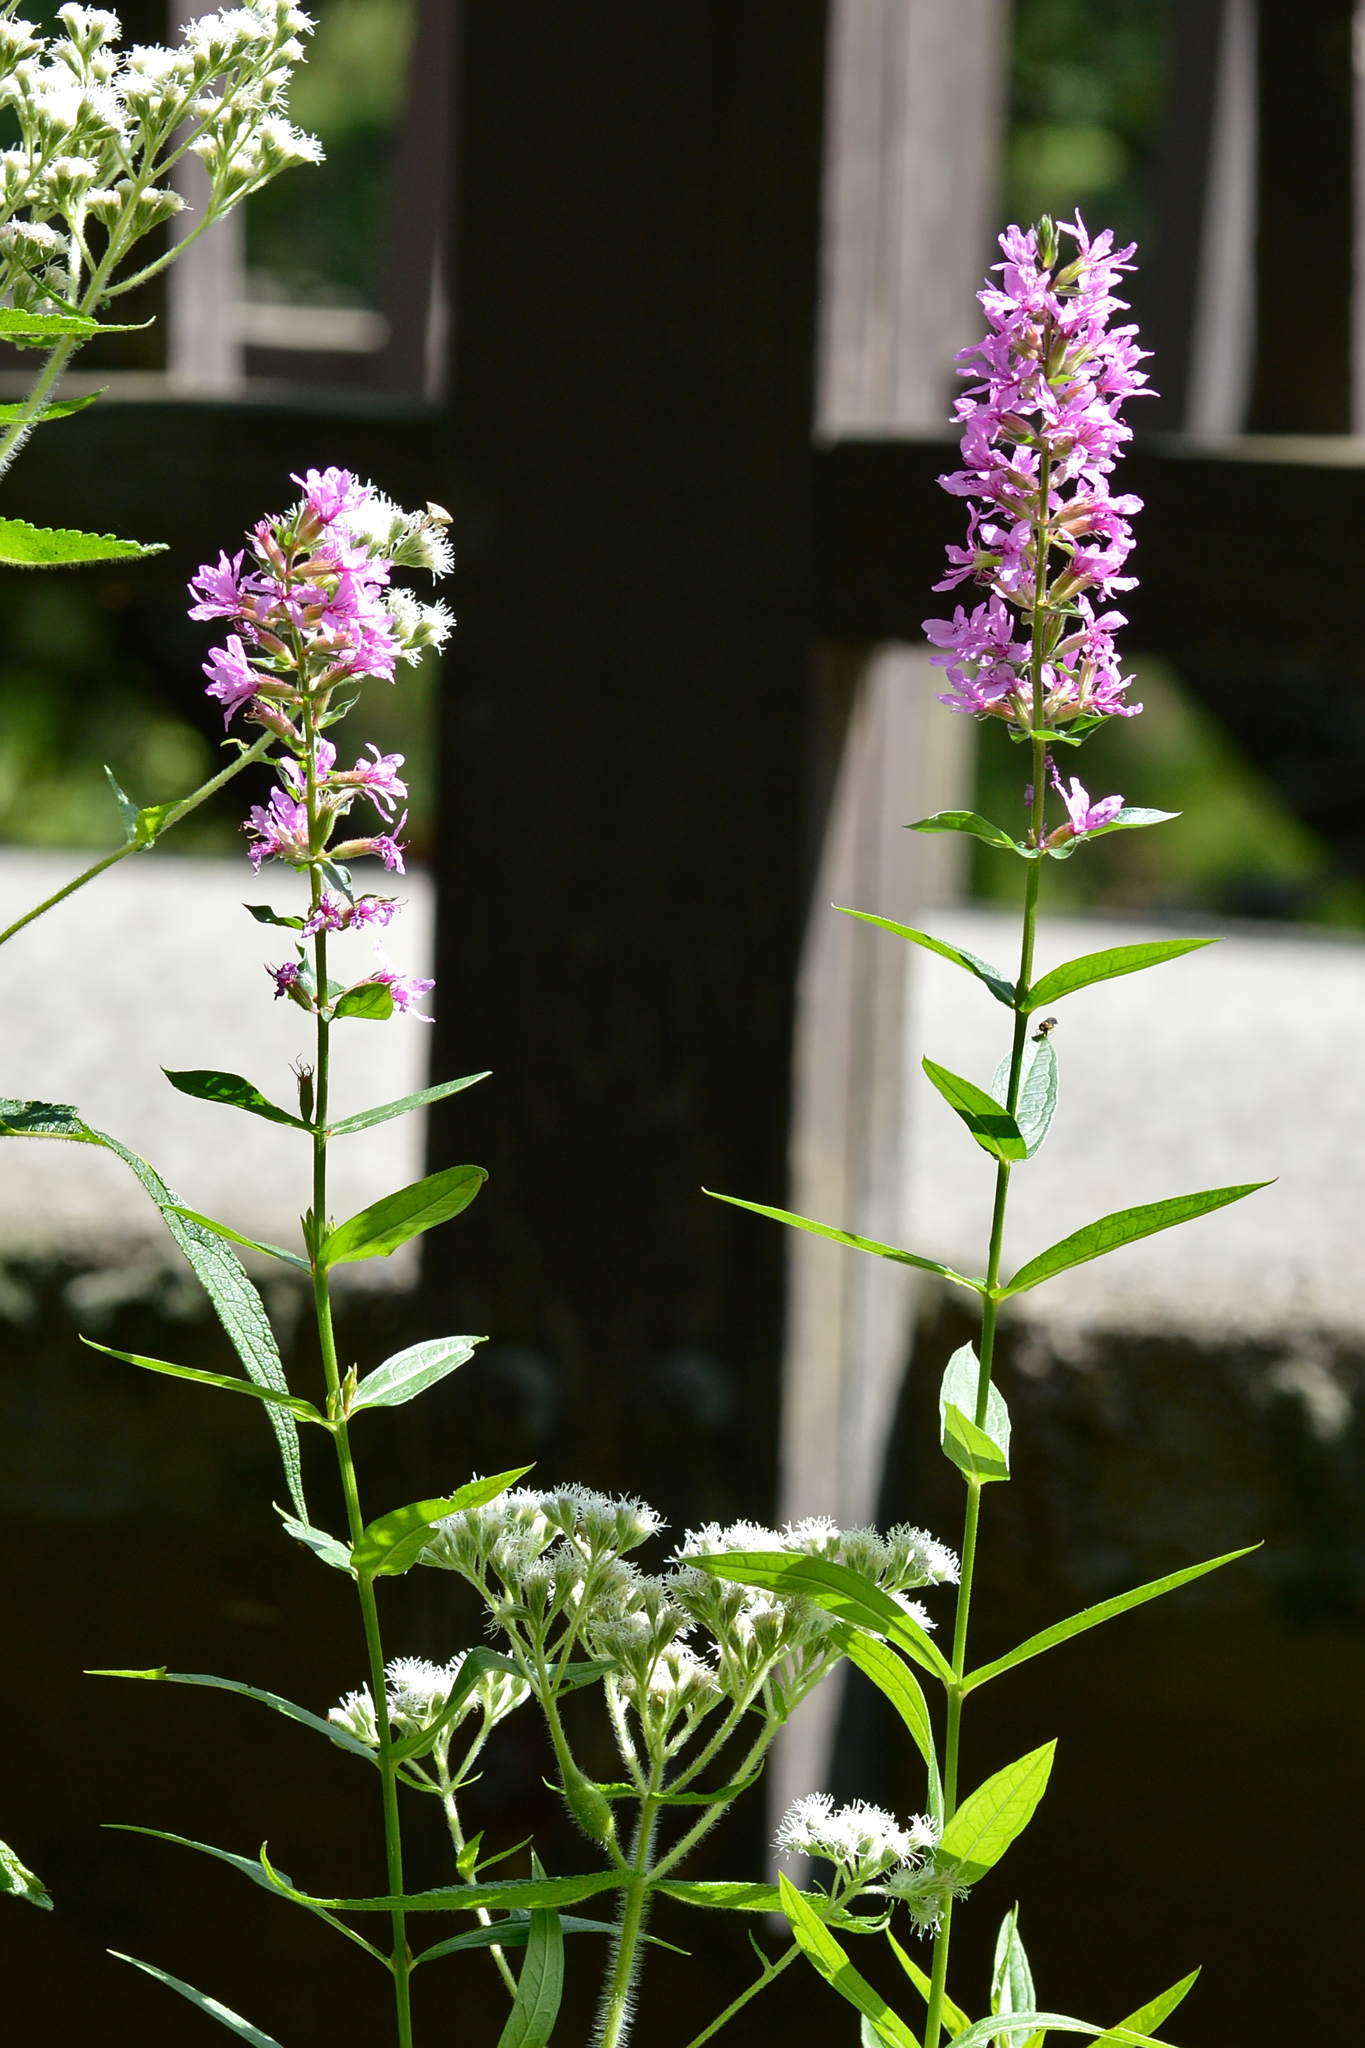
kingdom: Plantae
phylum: Tracheophyta
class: Magnoliopsida
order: Myrtales
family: Lythraceae
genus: Lythrum
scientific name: Lythrum salicaria
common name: Purple loosestrife
